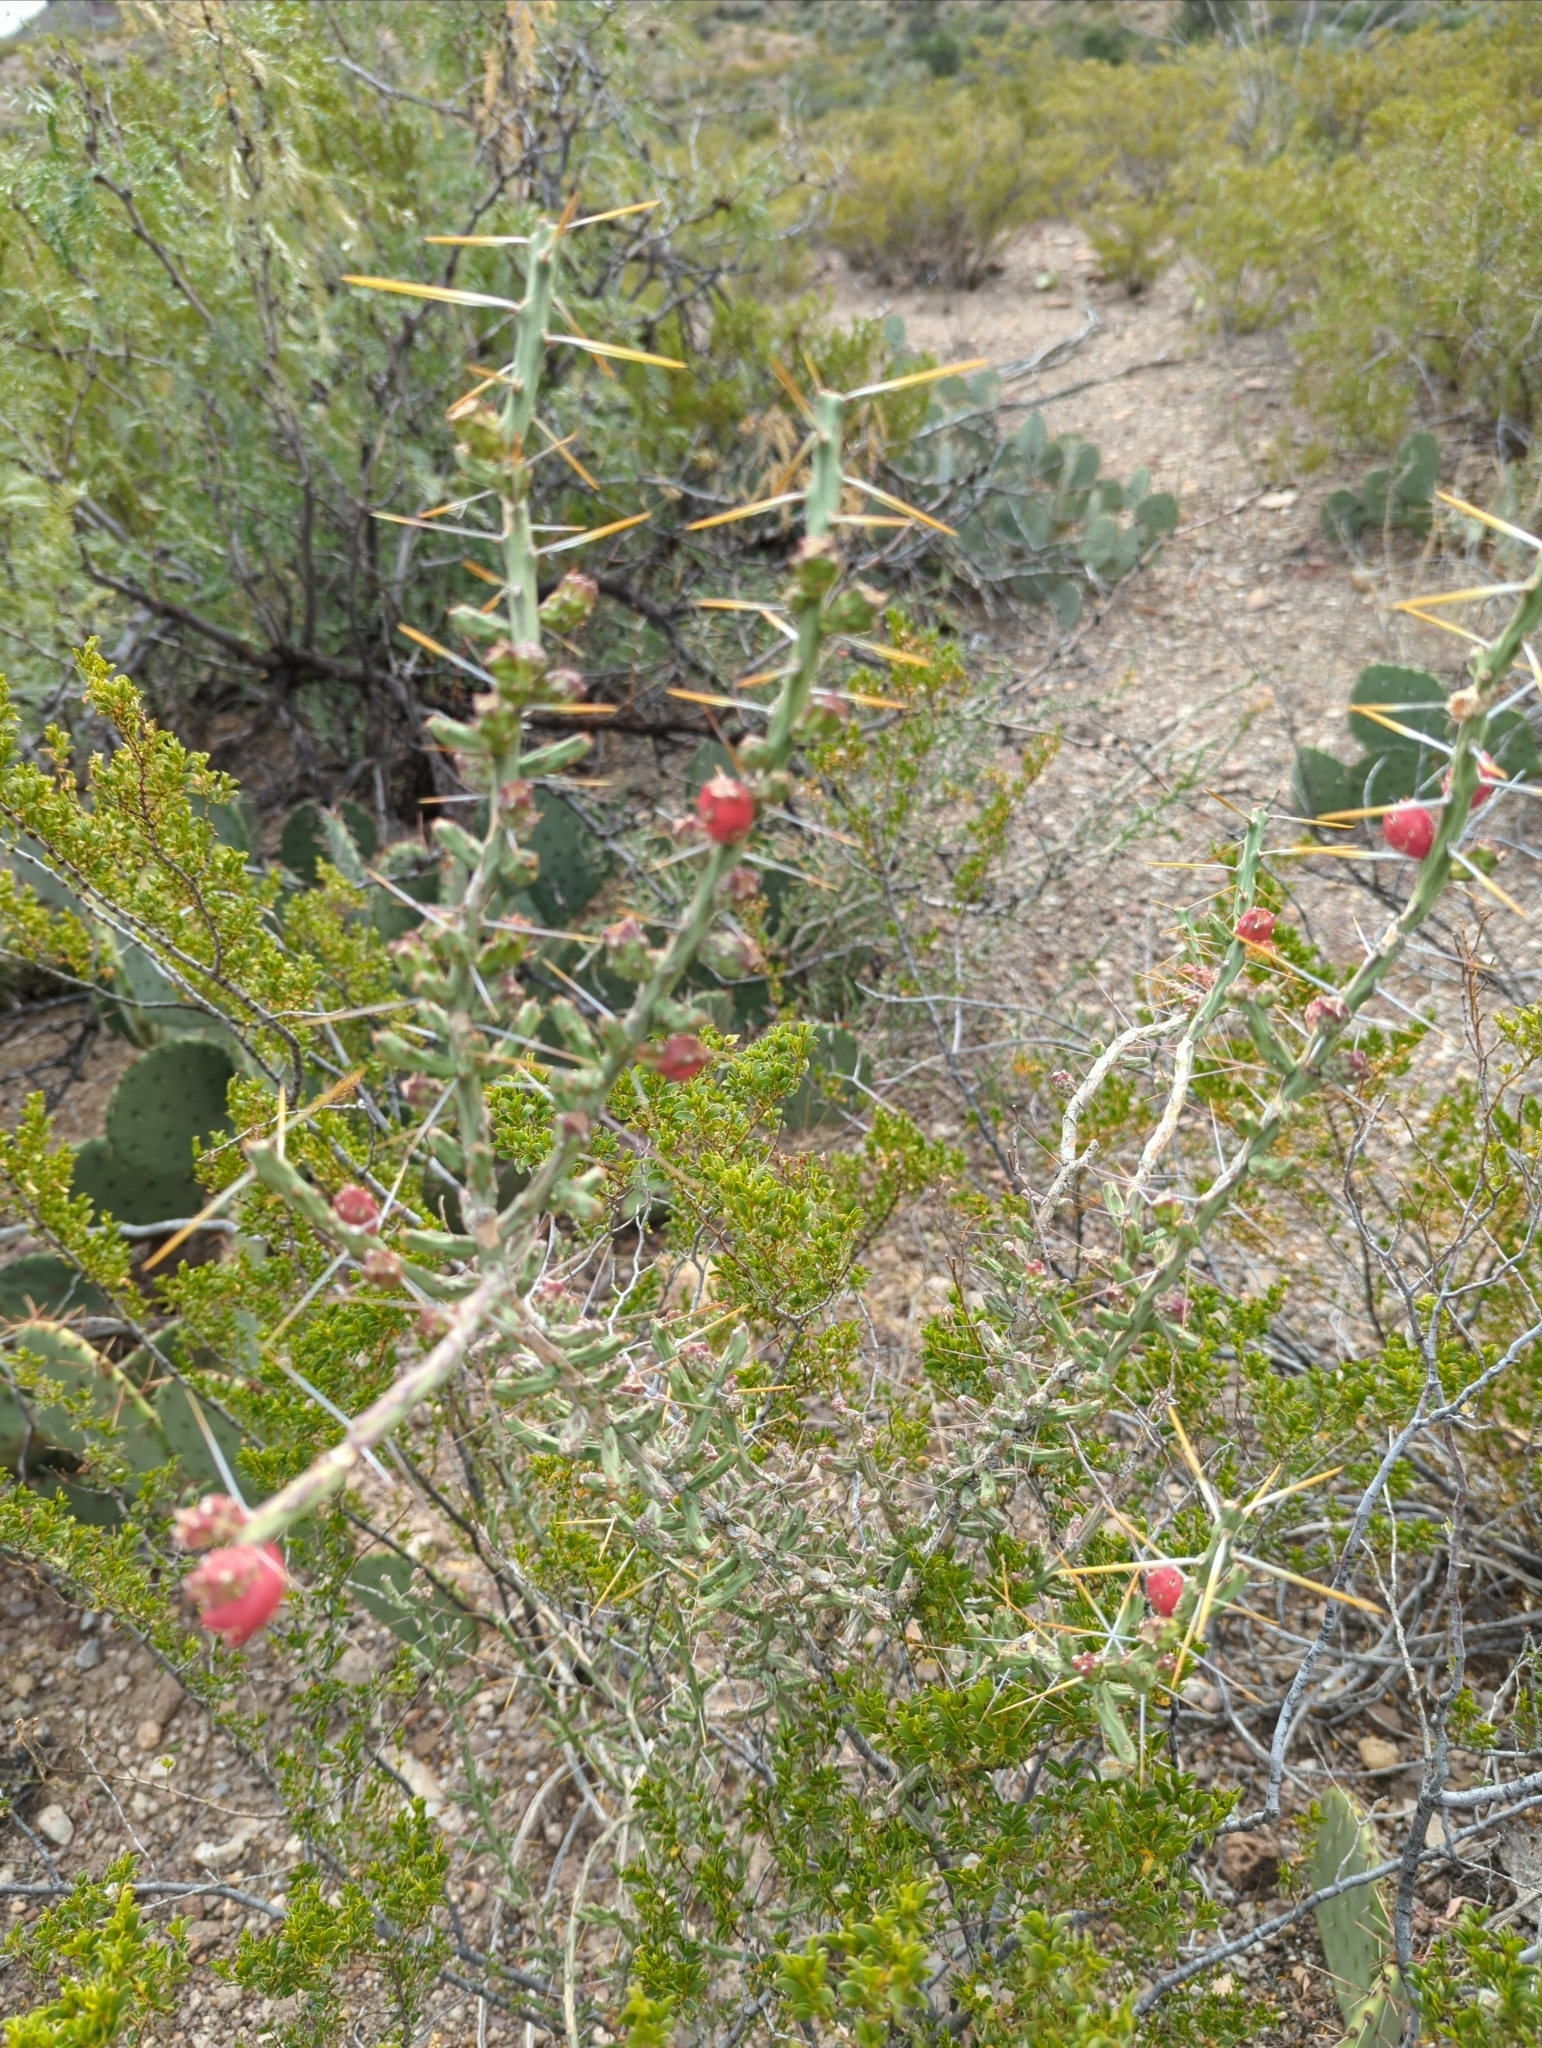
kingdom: Plantae
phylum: Tracheophyta
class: Magnoliopsida
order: Caryophyllales
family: Cactaceae
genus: Cylindropuntia
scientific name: Cylindropuntia leptocaulis
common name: Christmas cactus
